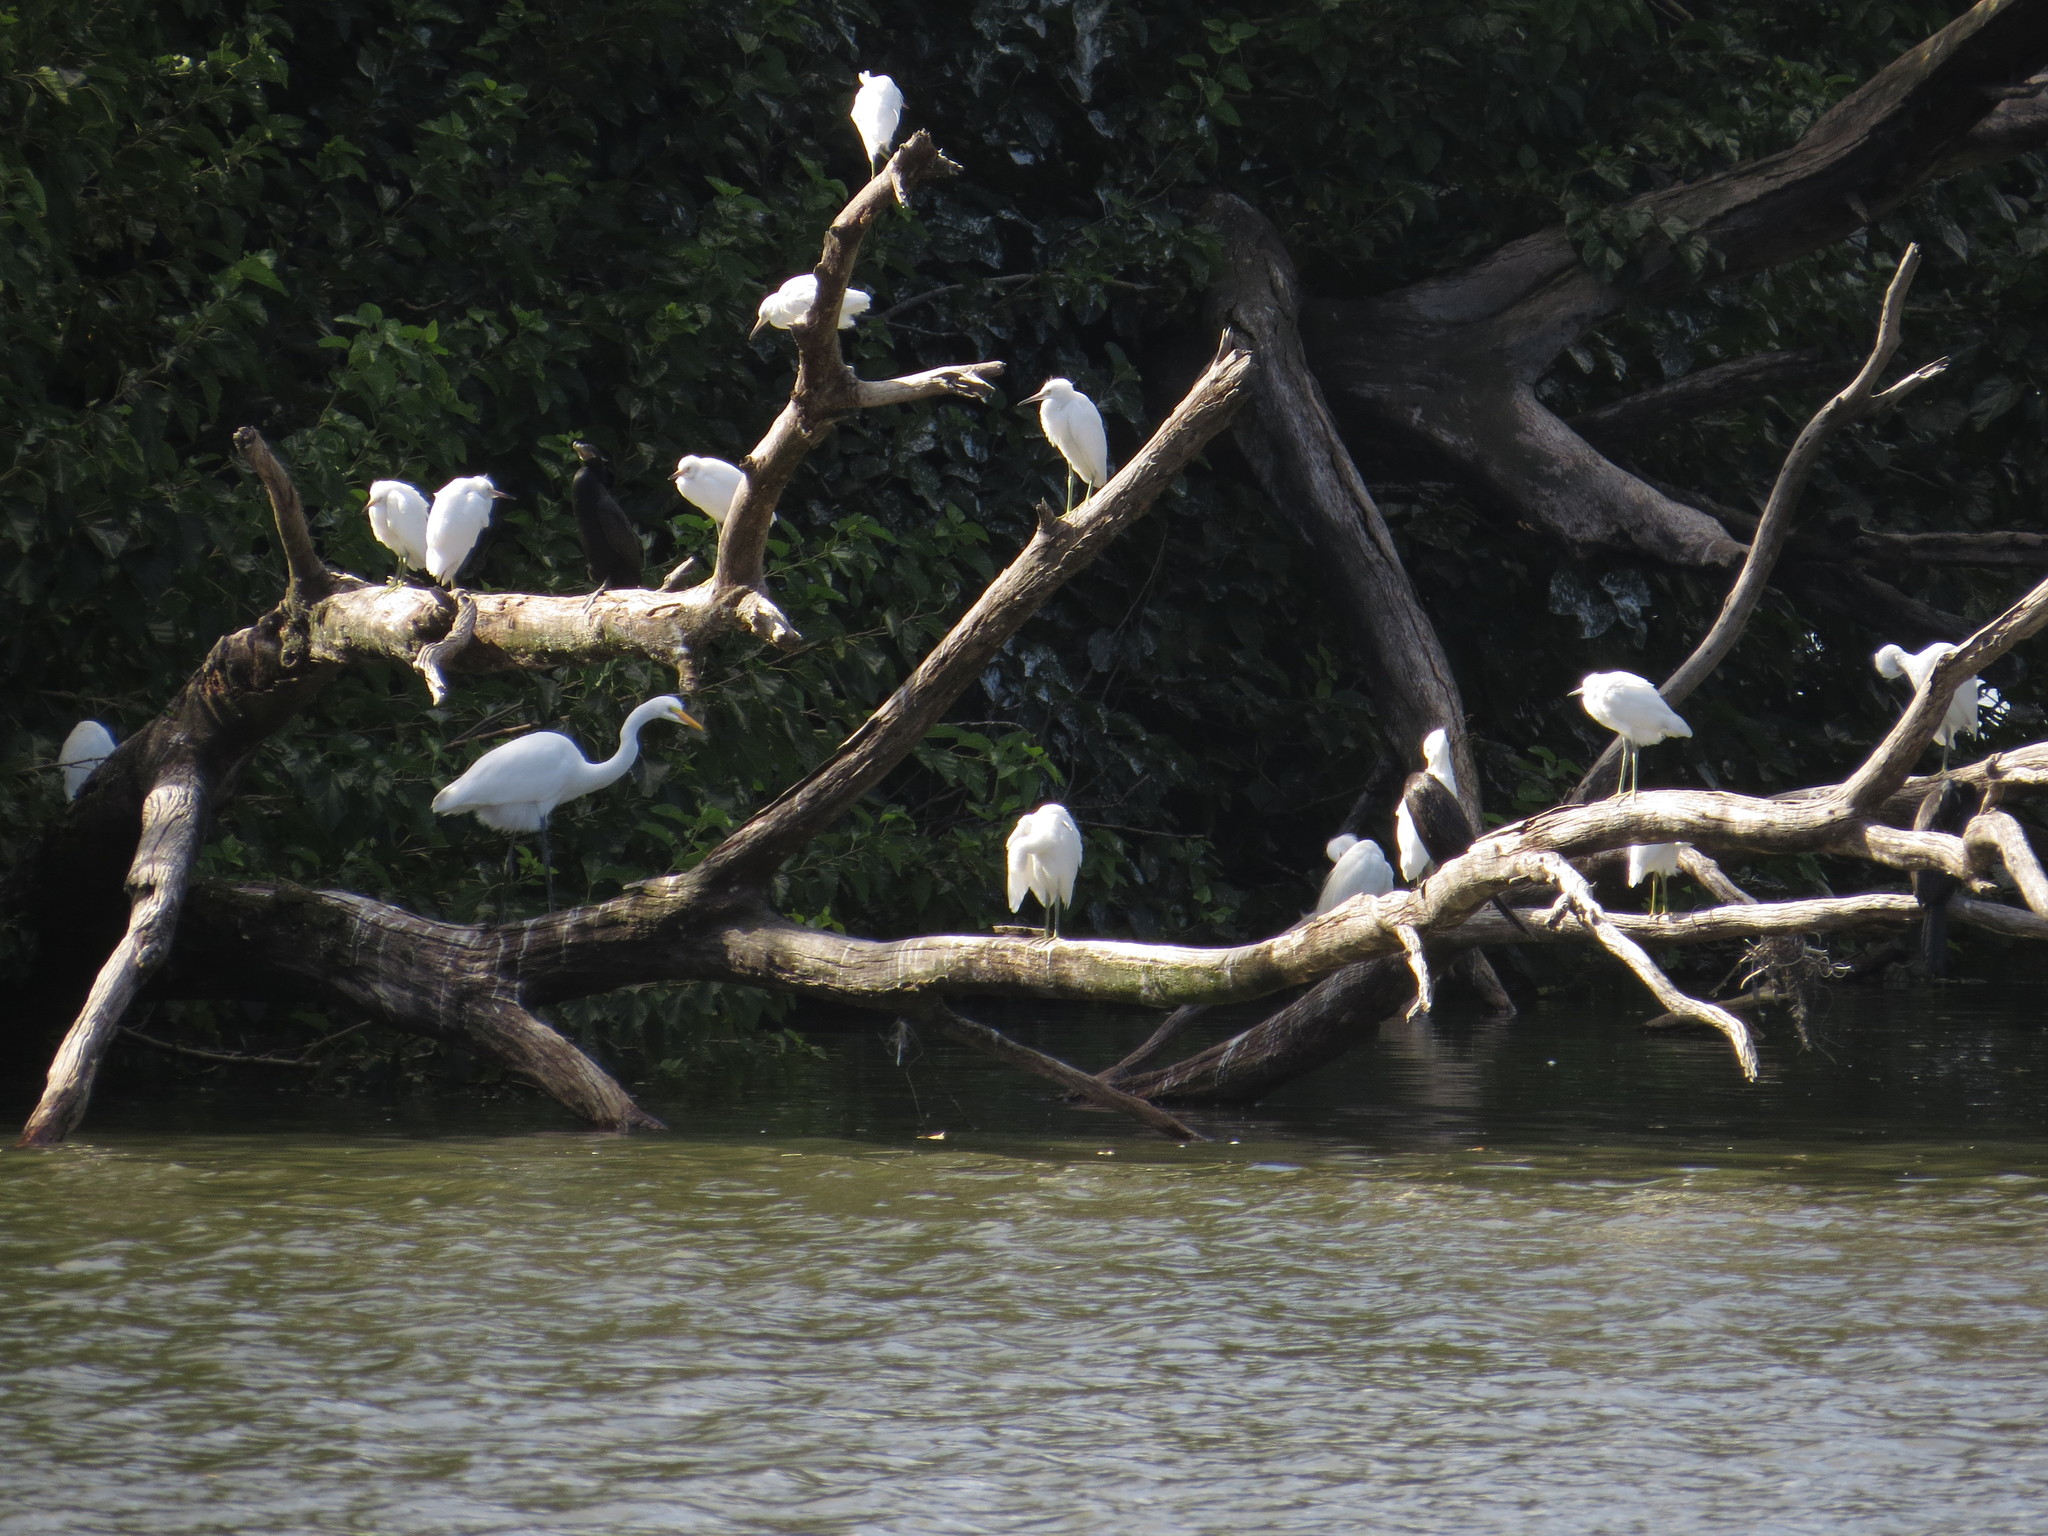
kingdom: Animalia
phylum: Chordata
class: Aves
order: Pelecaniformes
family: Ardeidae
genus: Ardea
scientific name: Ardea alba
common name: Great egret
